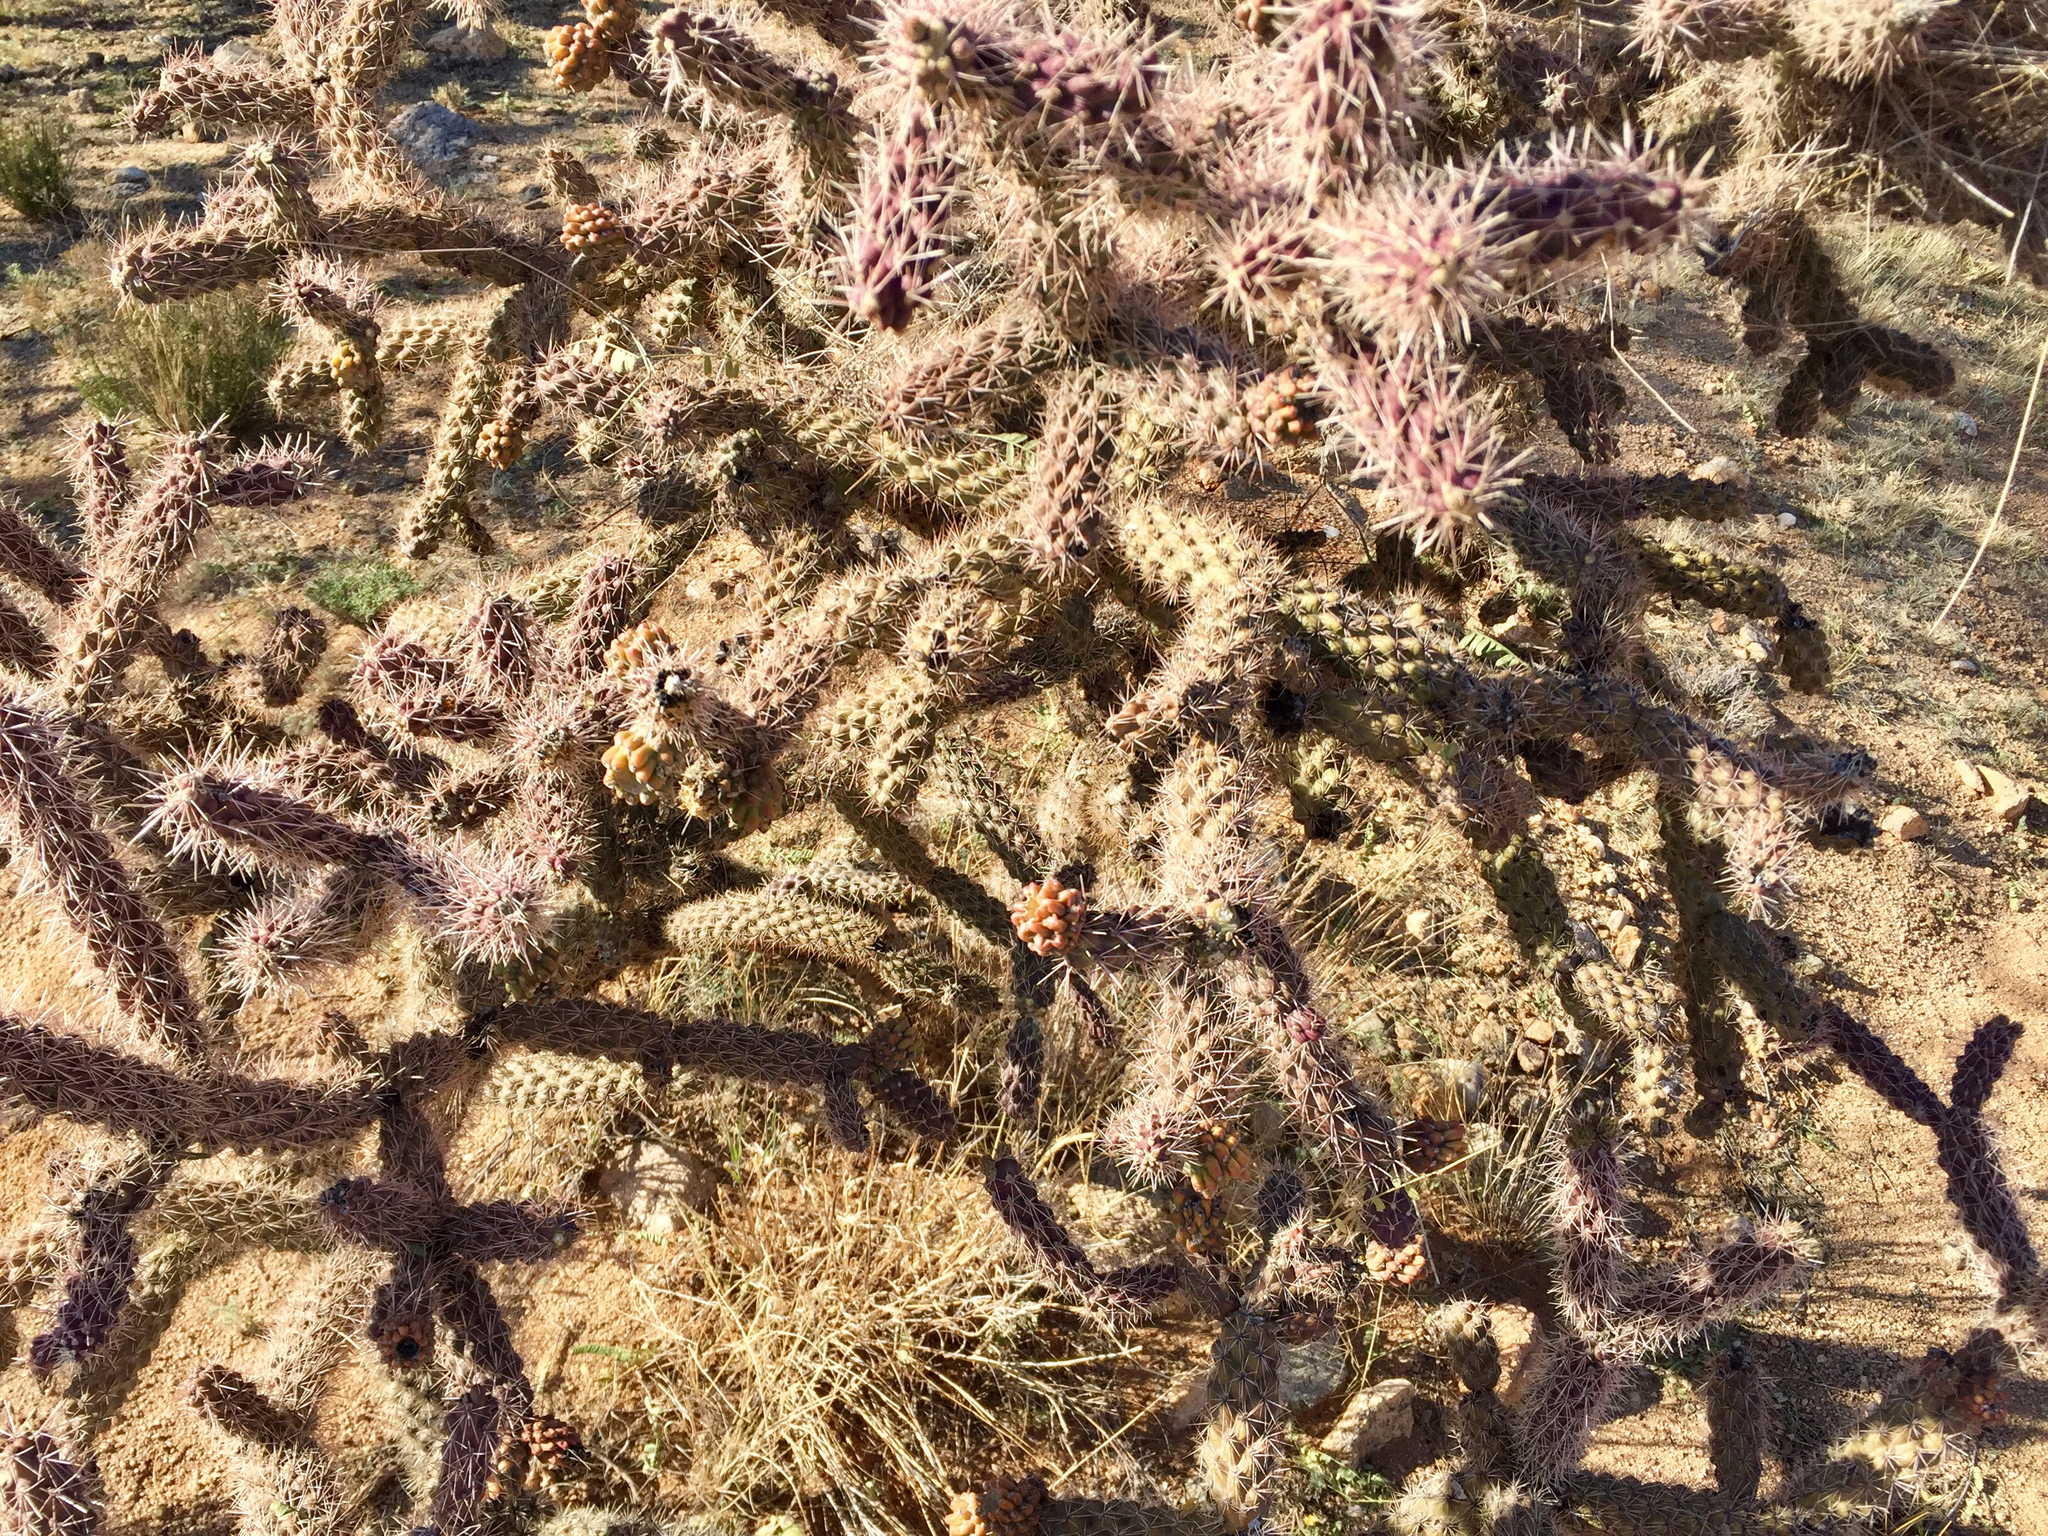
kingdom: Plantae
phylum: Tracheophyta
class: Magnoliopsida
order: Caryophyllales
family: Cactaceae
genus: Cylindropuntia
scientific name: Cylindropuntia imbricata
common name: Candelabrum cactus
